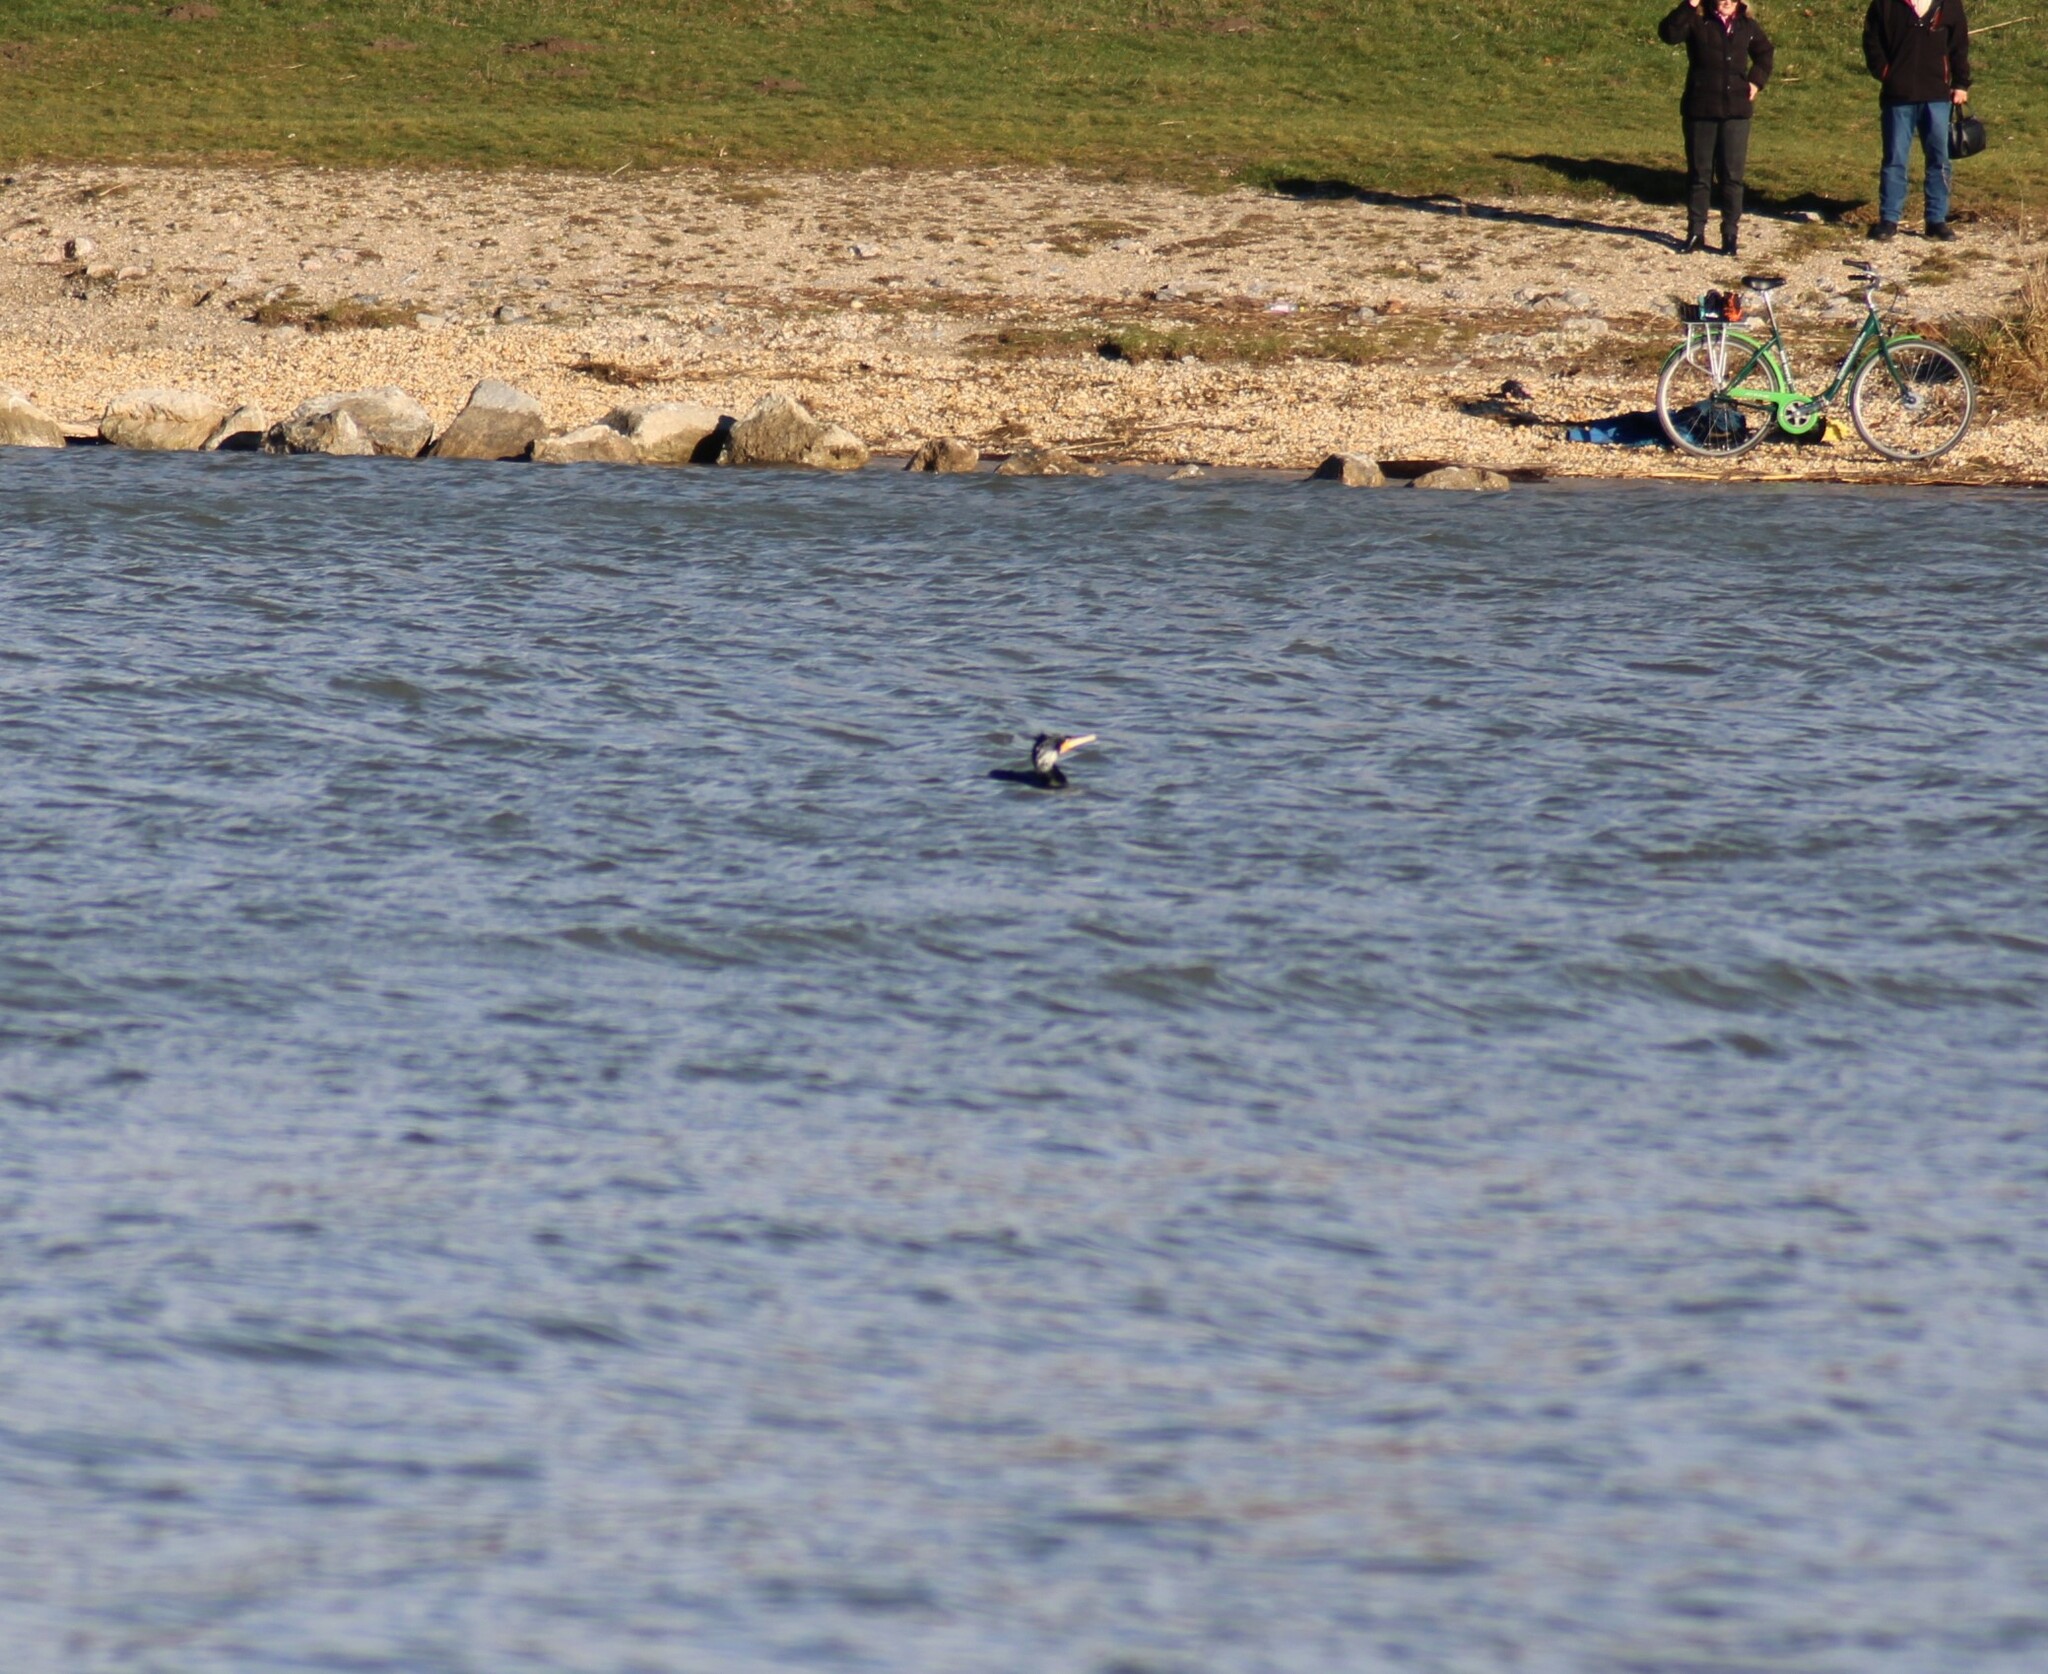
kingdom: Animalia
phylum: Chordata
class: Aves
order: Suliformes
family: Phalacrocoracidae
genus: Phalacrocorax
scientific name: Phalacrocorax carbo
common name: Great cormorant
